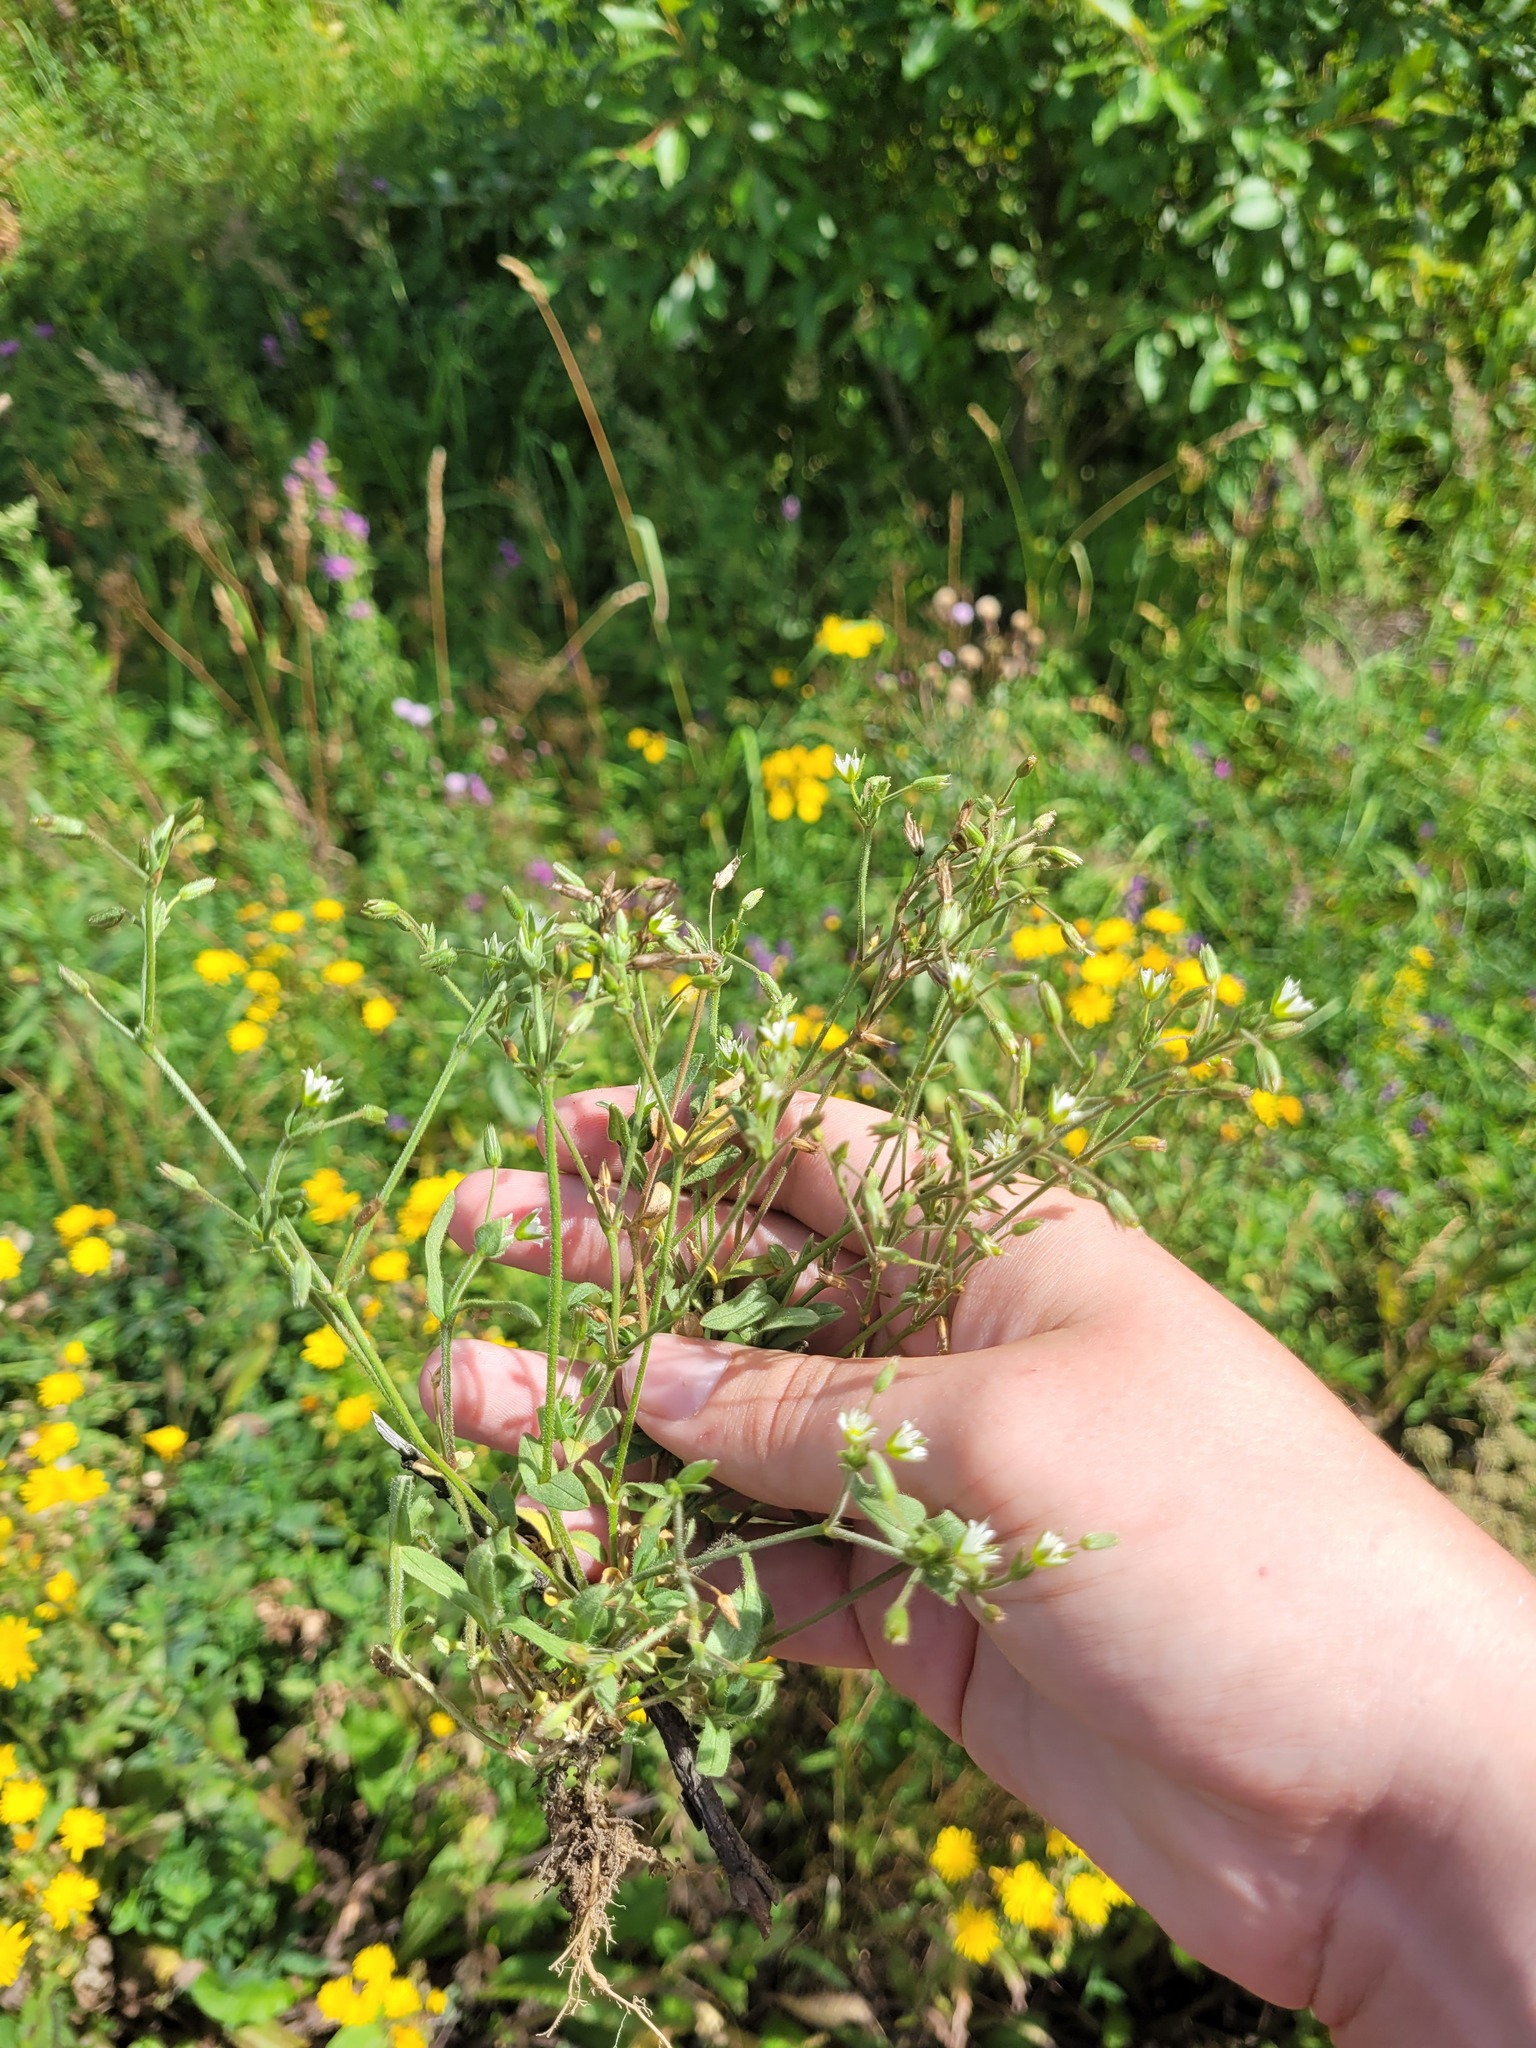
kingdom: Plantae
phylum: Tracheophyta
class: Magnoliopsida
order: Caryophyllales
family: Caryophyllaceae
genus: Cerastium
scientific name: Cerastium holosteoides
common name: Big chickweed
